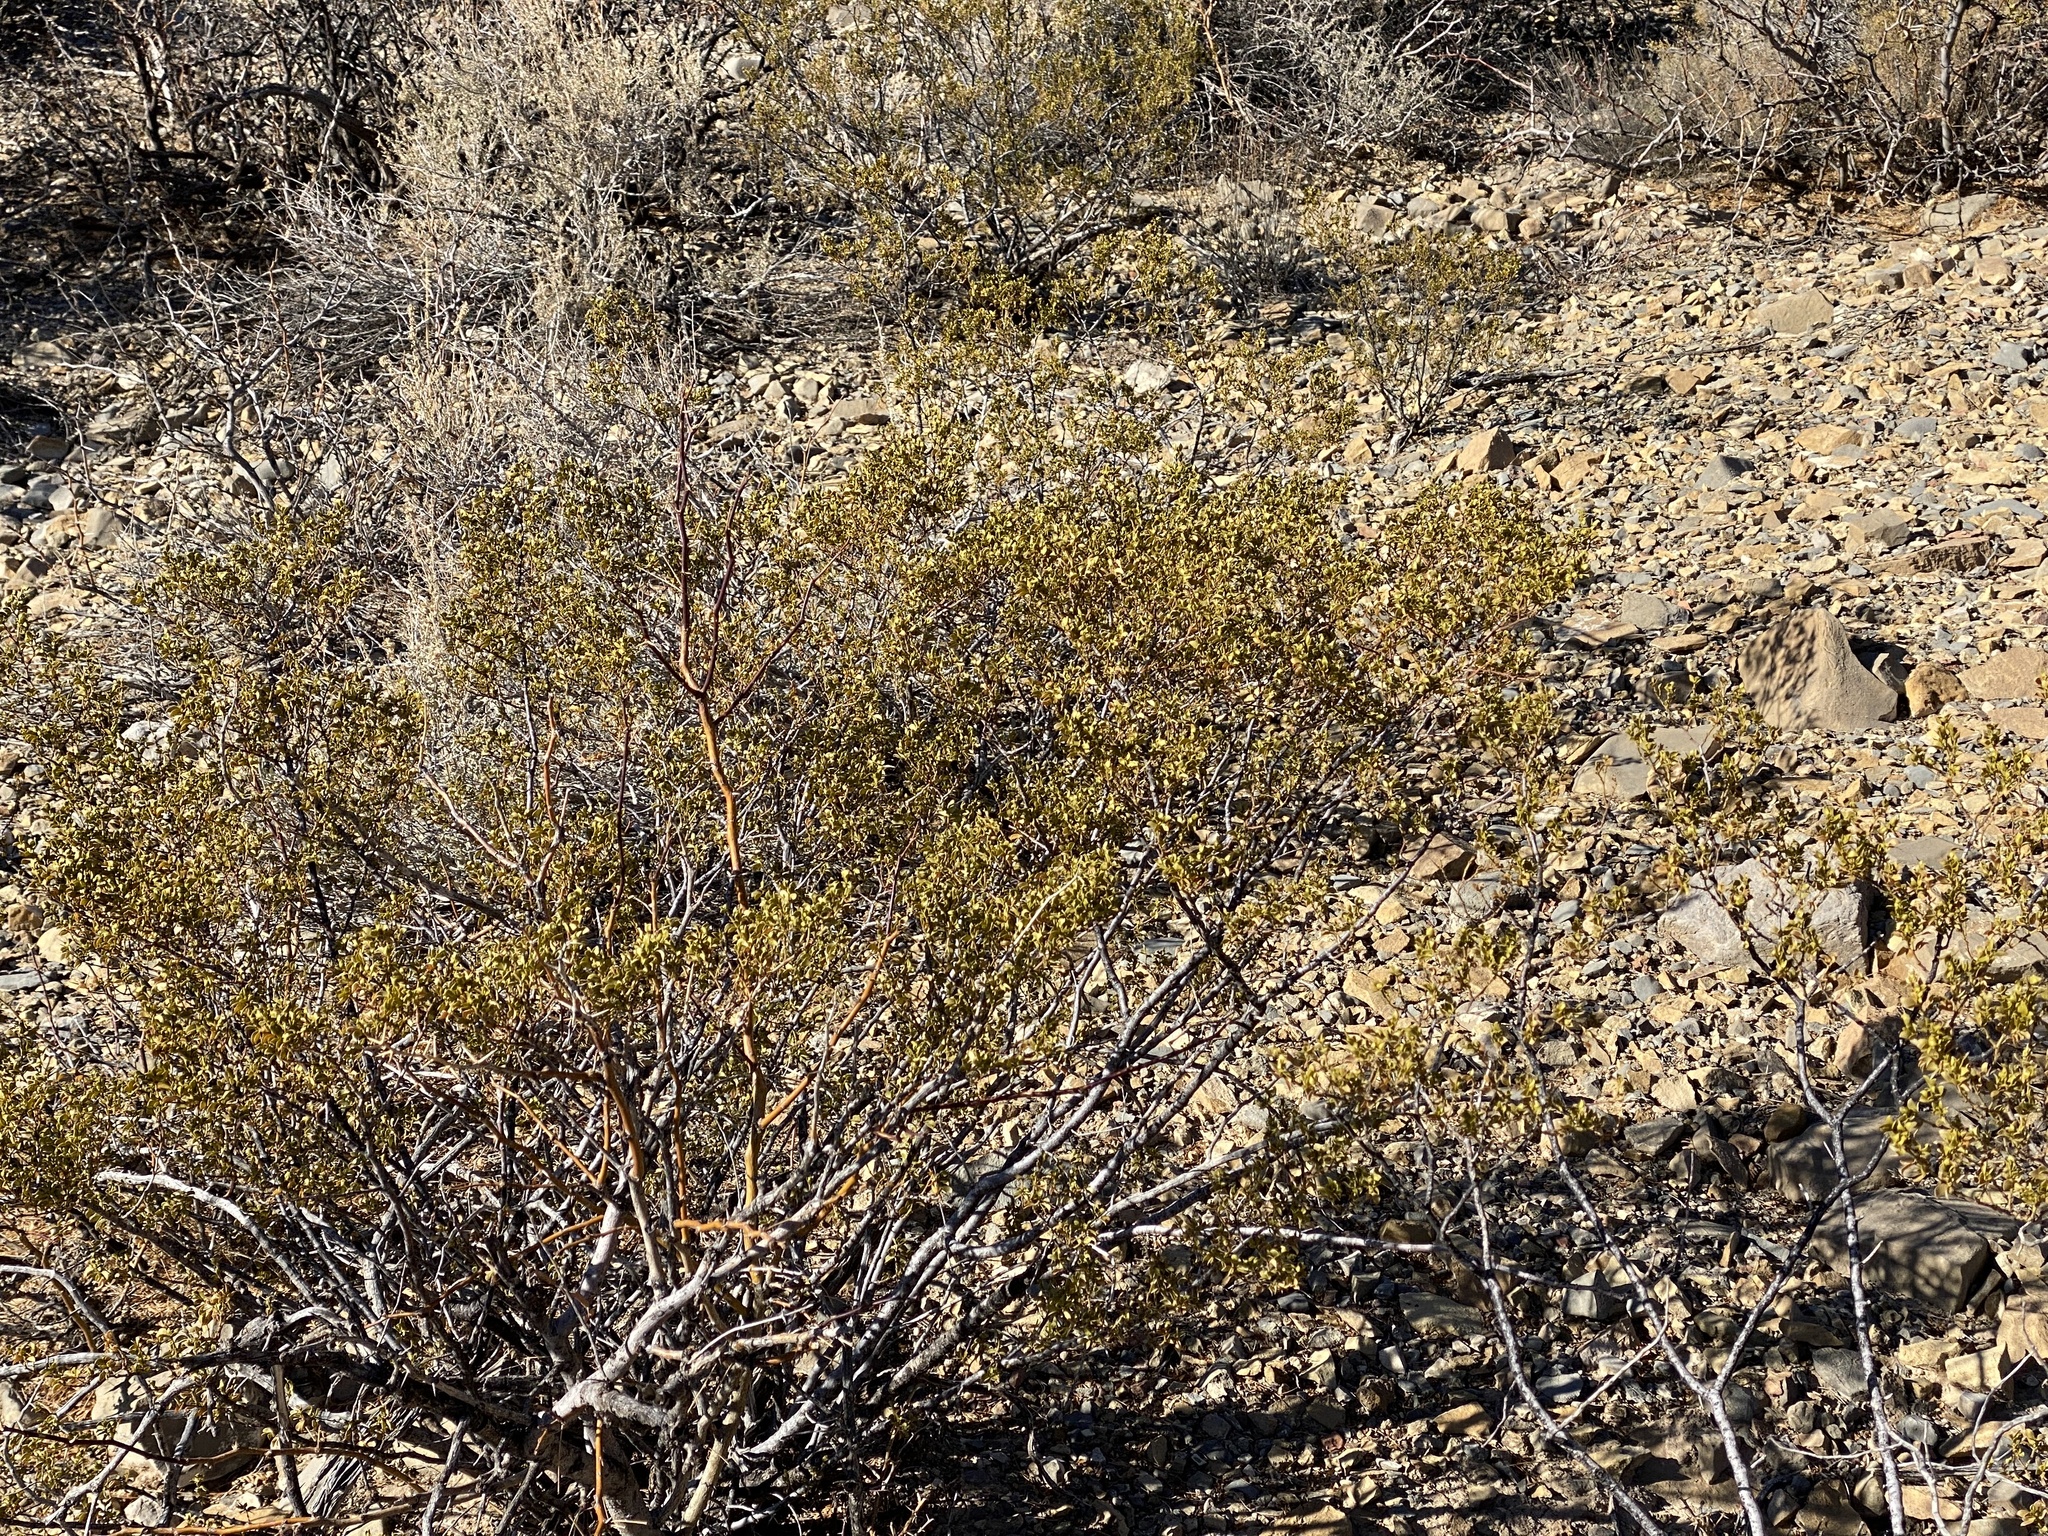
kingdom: Plantae
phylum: Tracheophyta
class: Magnoliopsida
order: Zygophyllales
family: Zygophyllaceae
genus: Larrea
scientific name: Larrea tridentata
